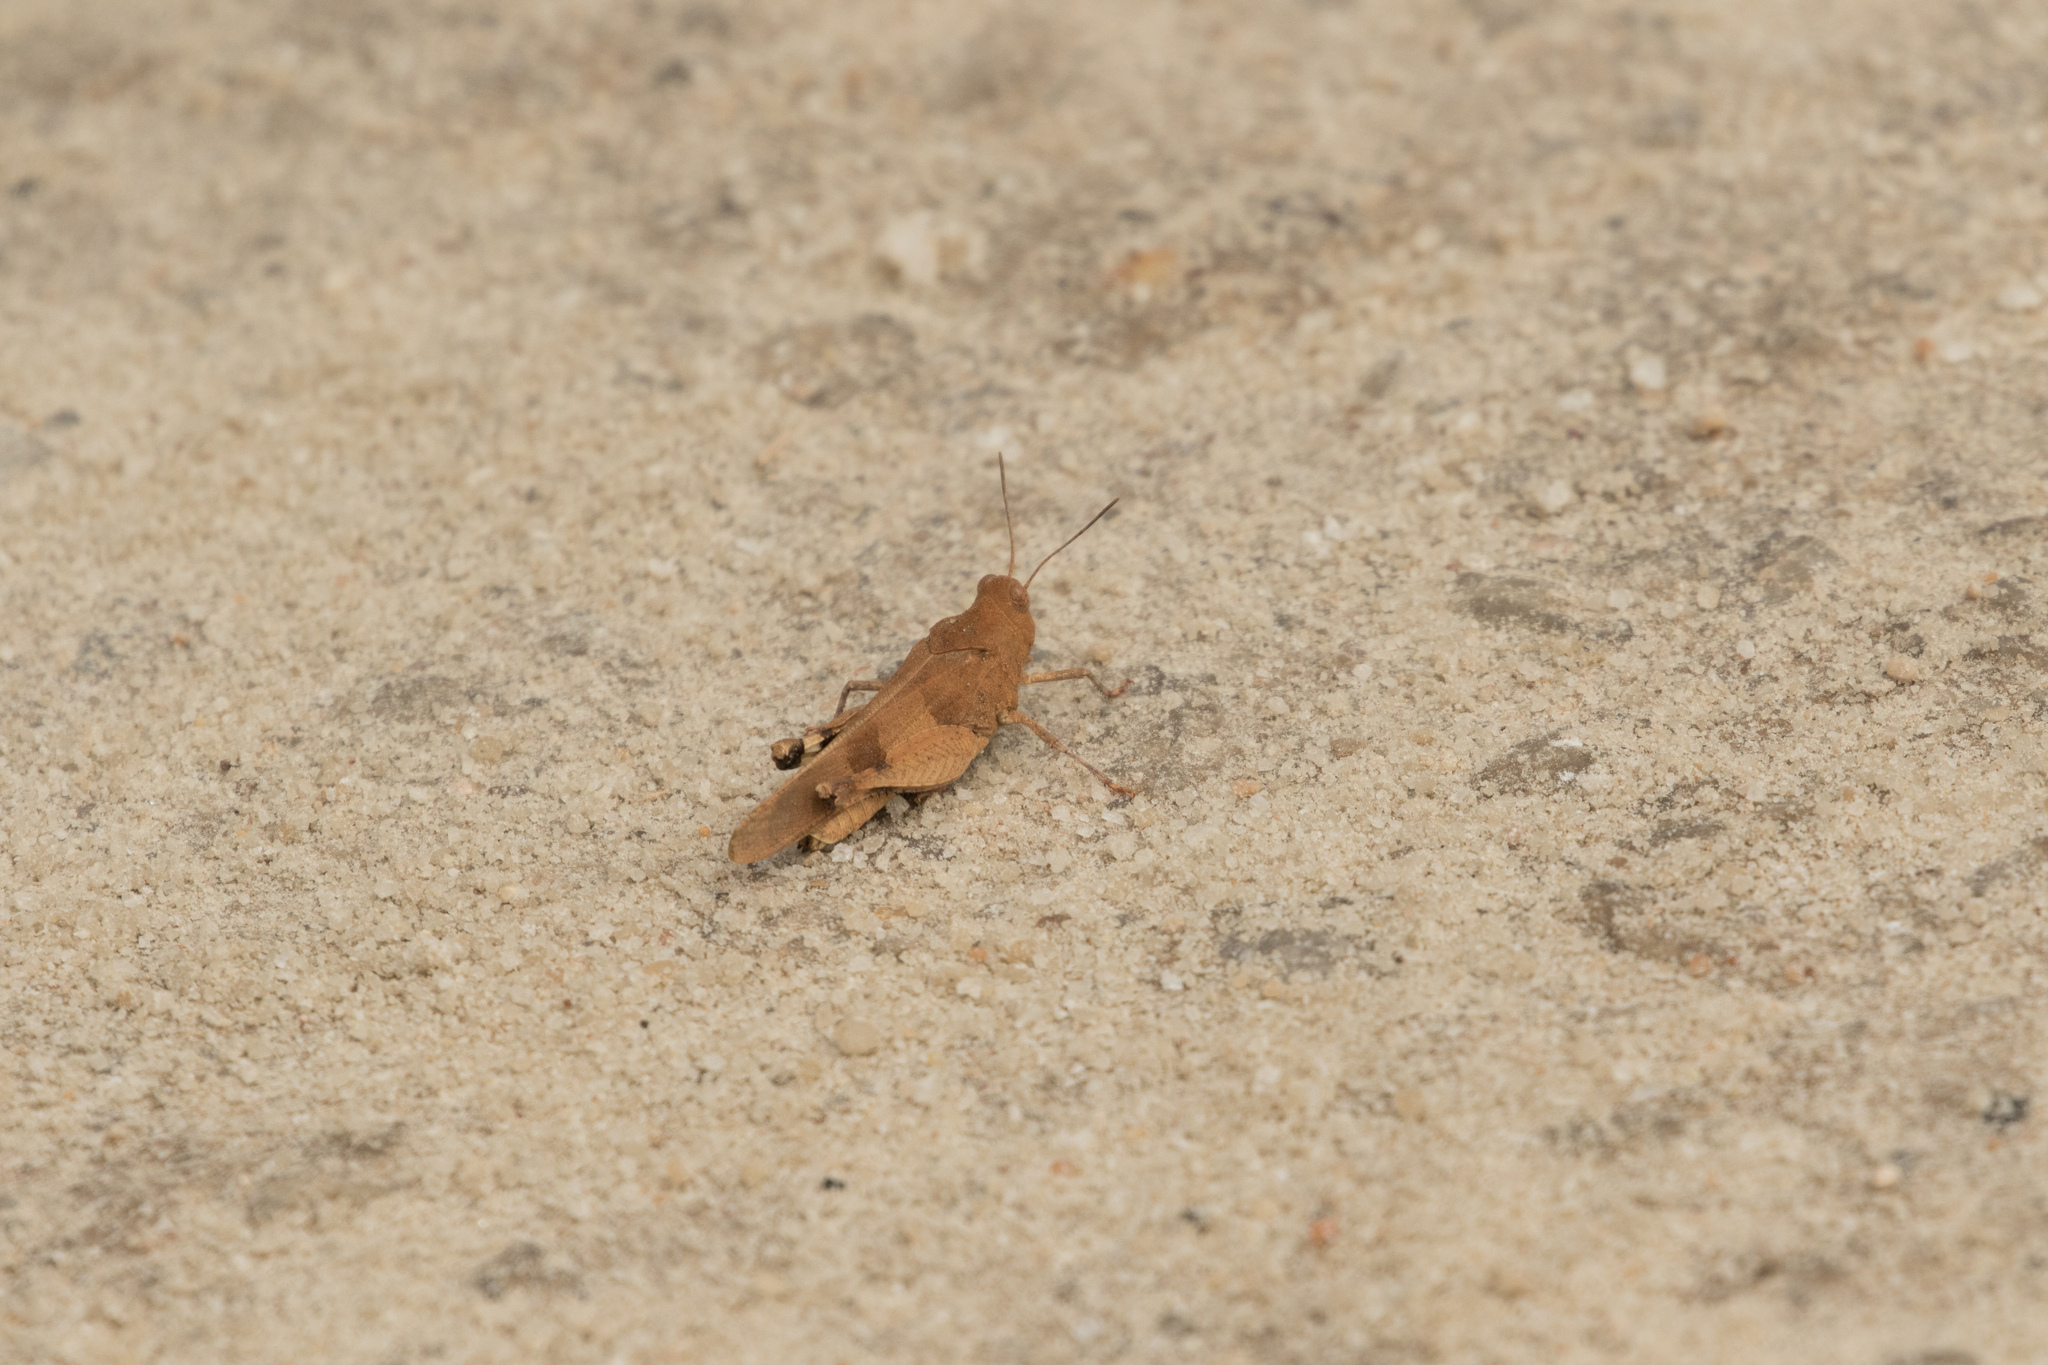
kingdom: Animalia
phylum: Arthropoda
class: Insecta
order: Orthoptera
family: Acrididae
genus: Oedipoda
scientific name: Oedipoda caerulescens
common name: Blue-winged grasshopper
